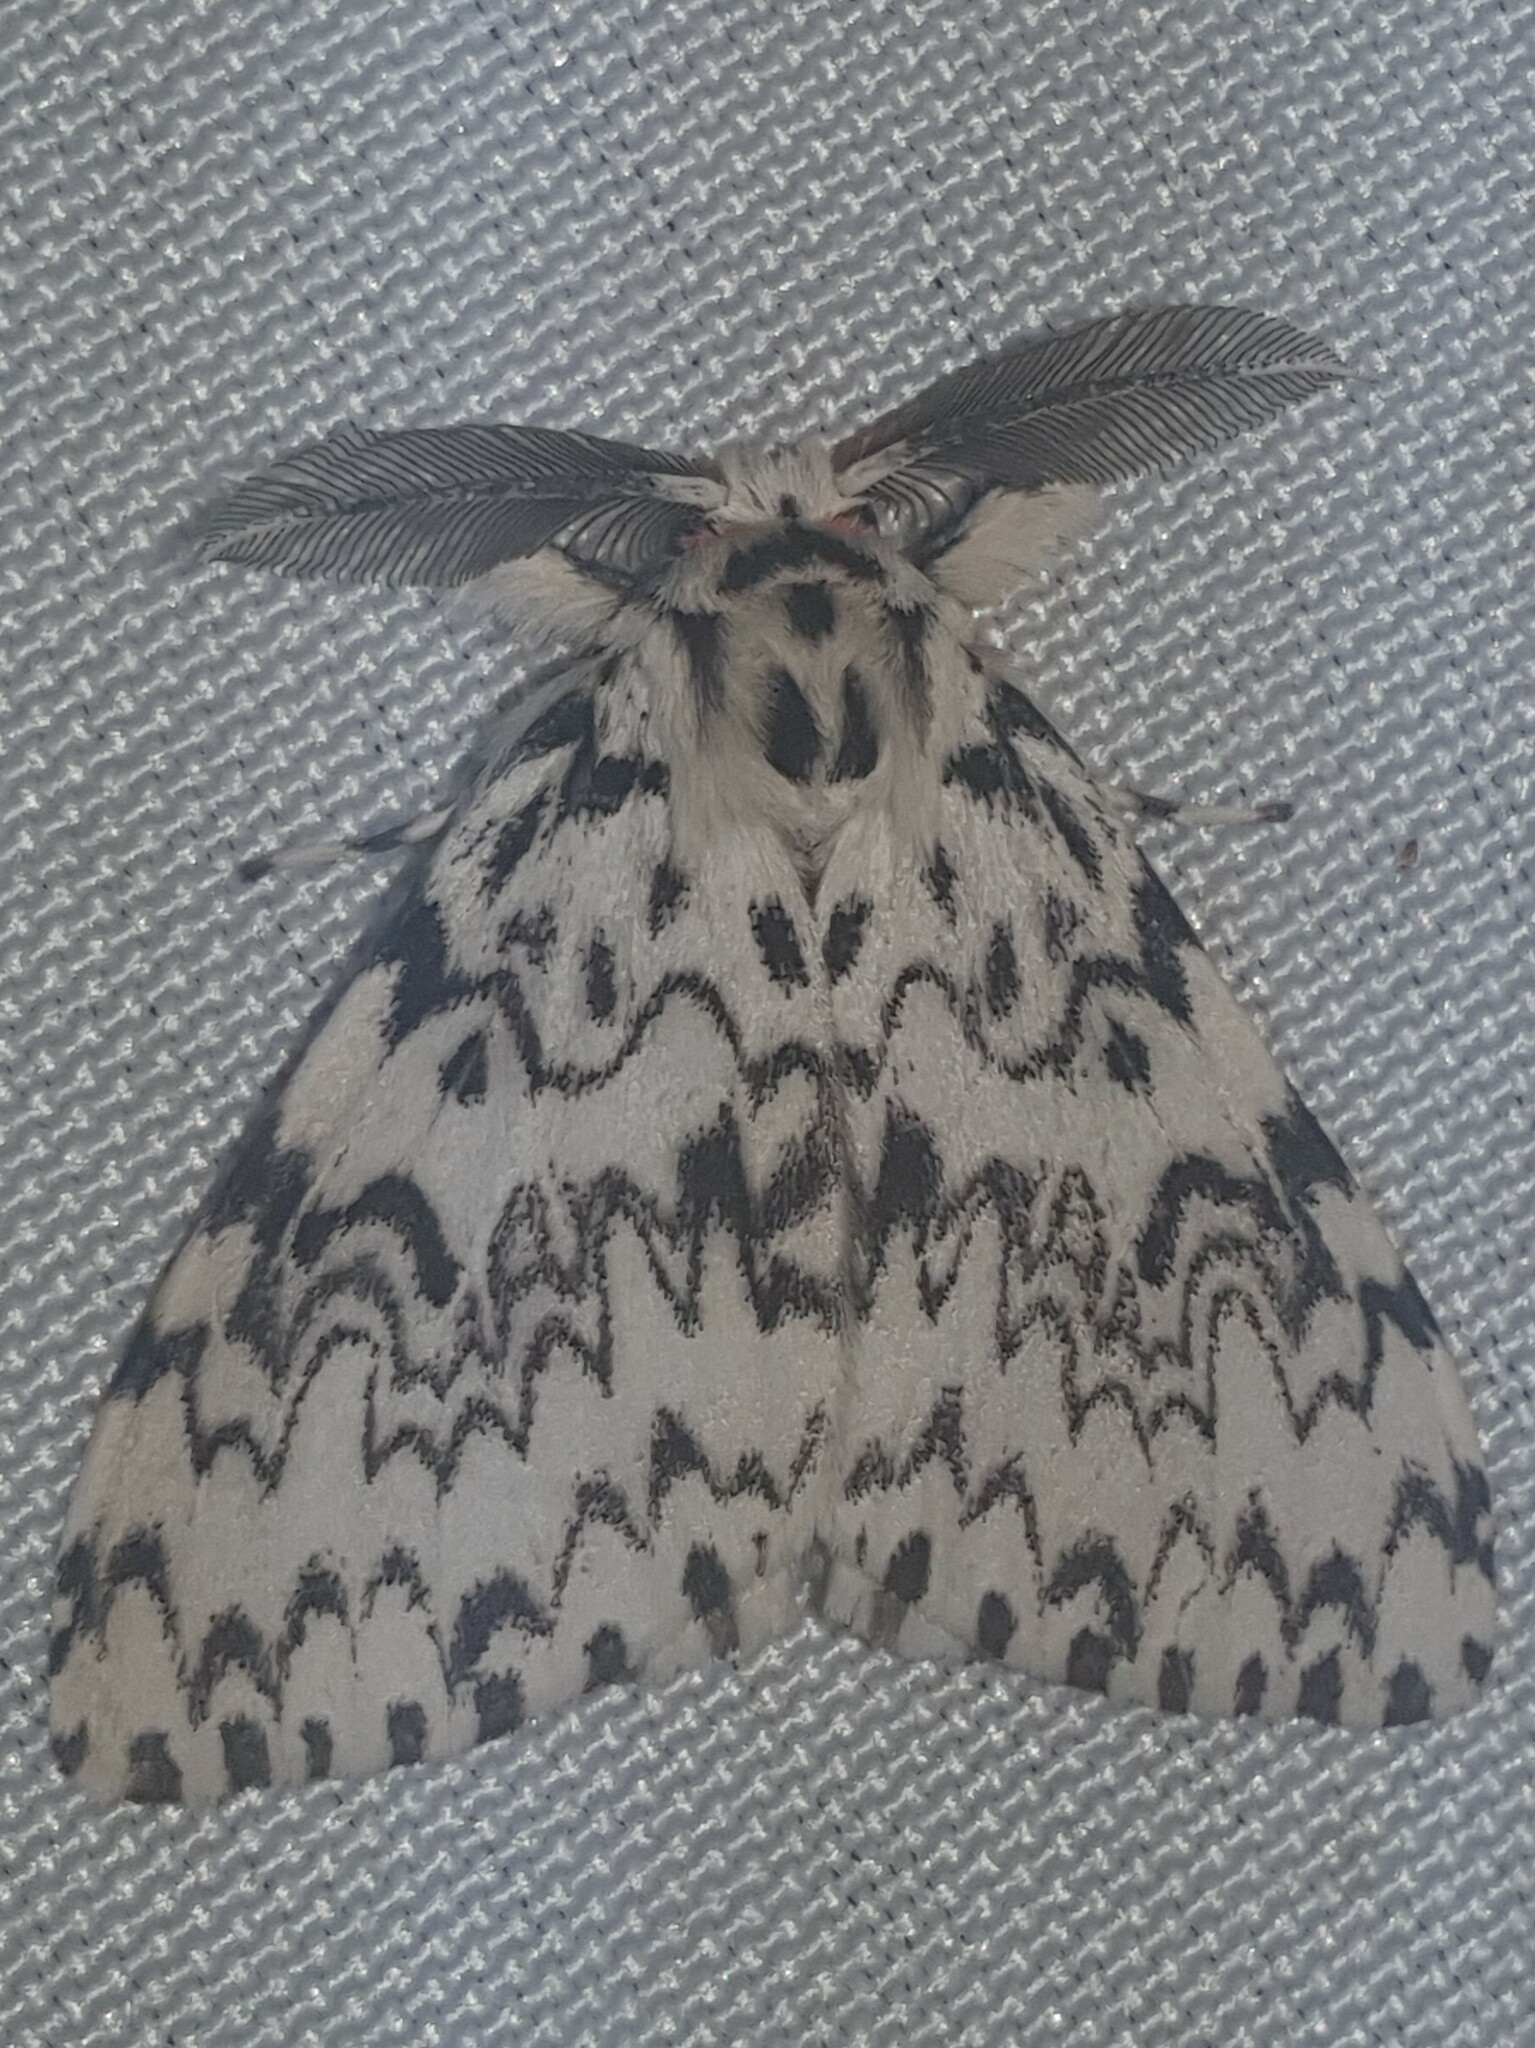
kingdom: Animalia
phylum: Arthropoda
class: Insecta
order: Lepidoptera
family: Erebidae
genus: Lymantria
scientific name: Lymantria monacha
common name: Black arches
